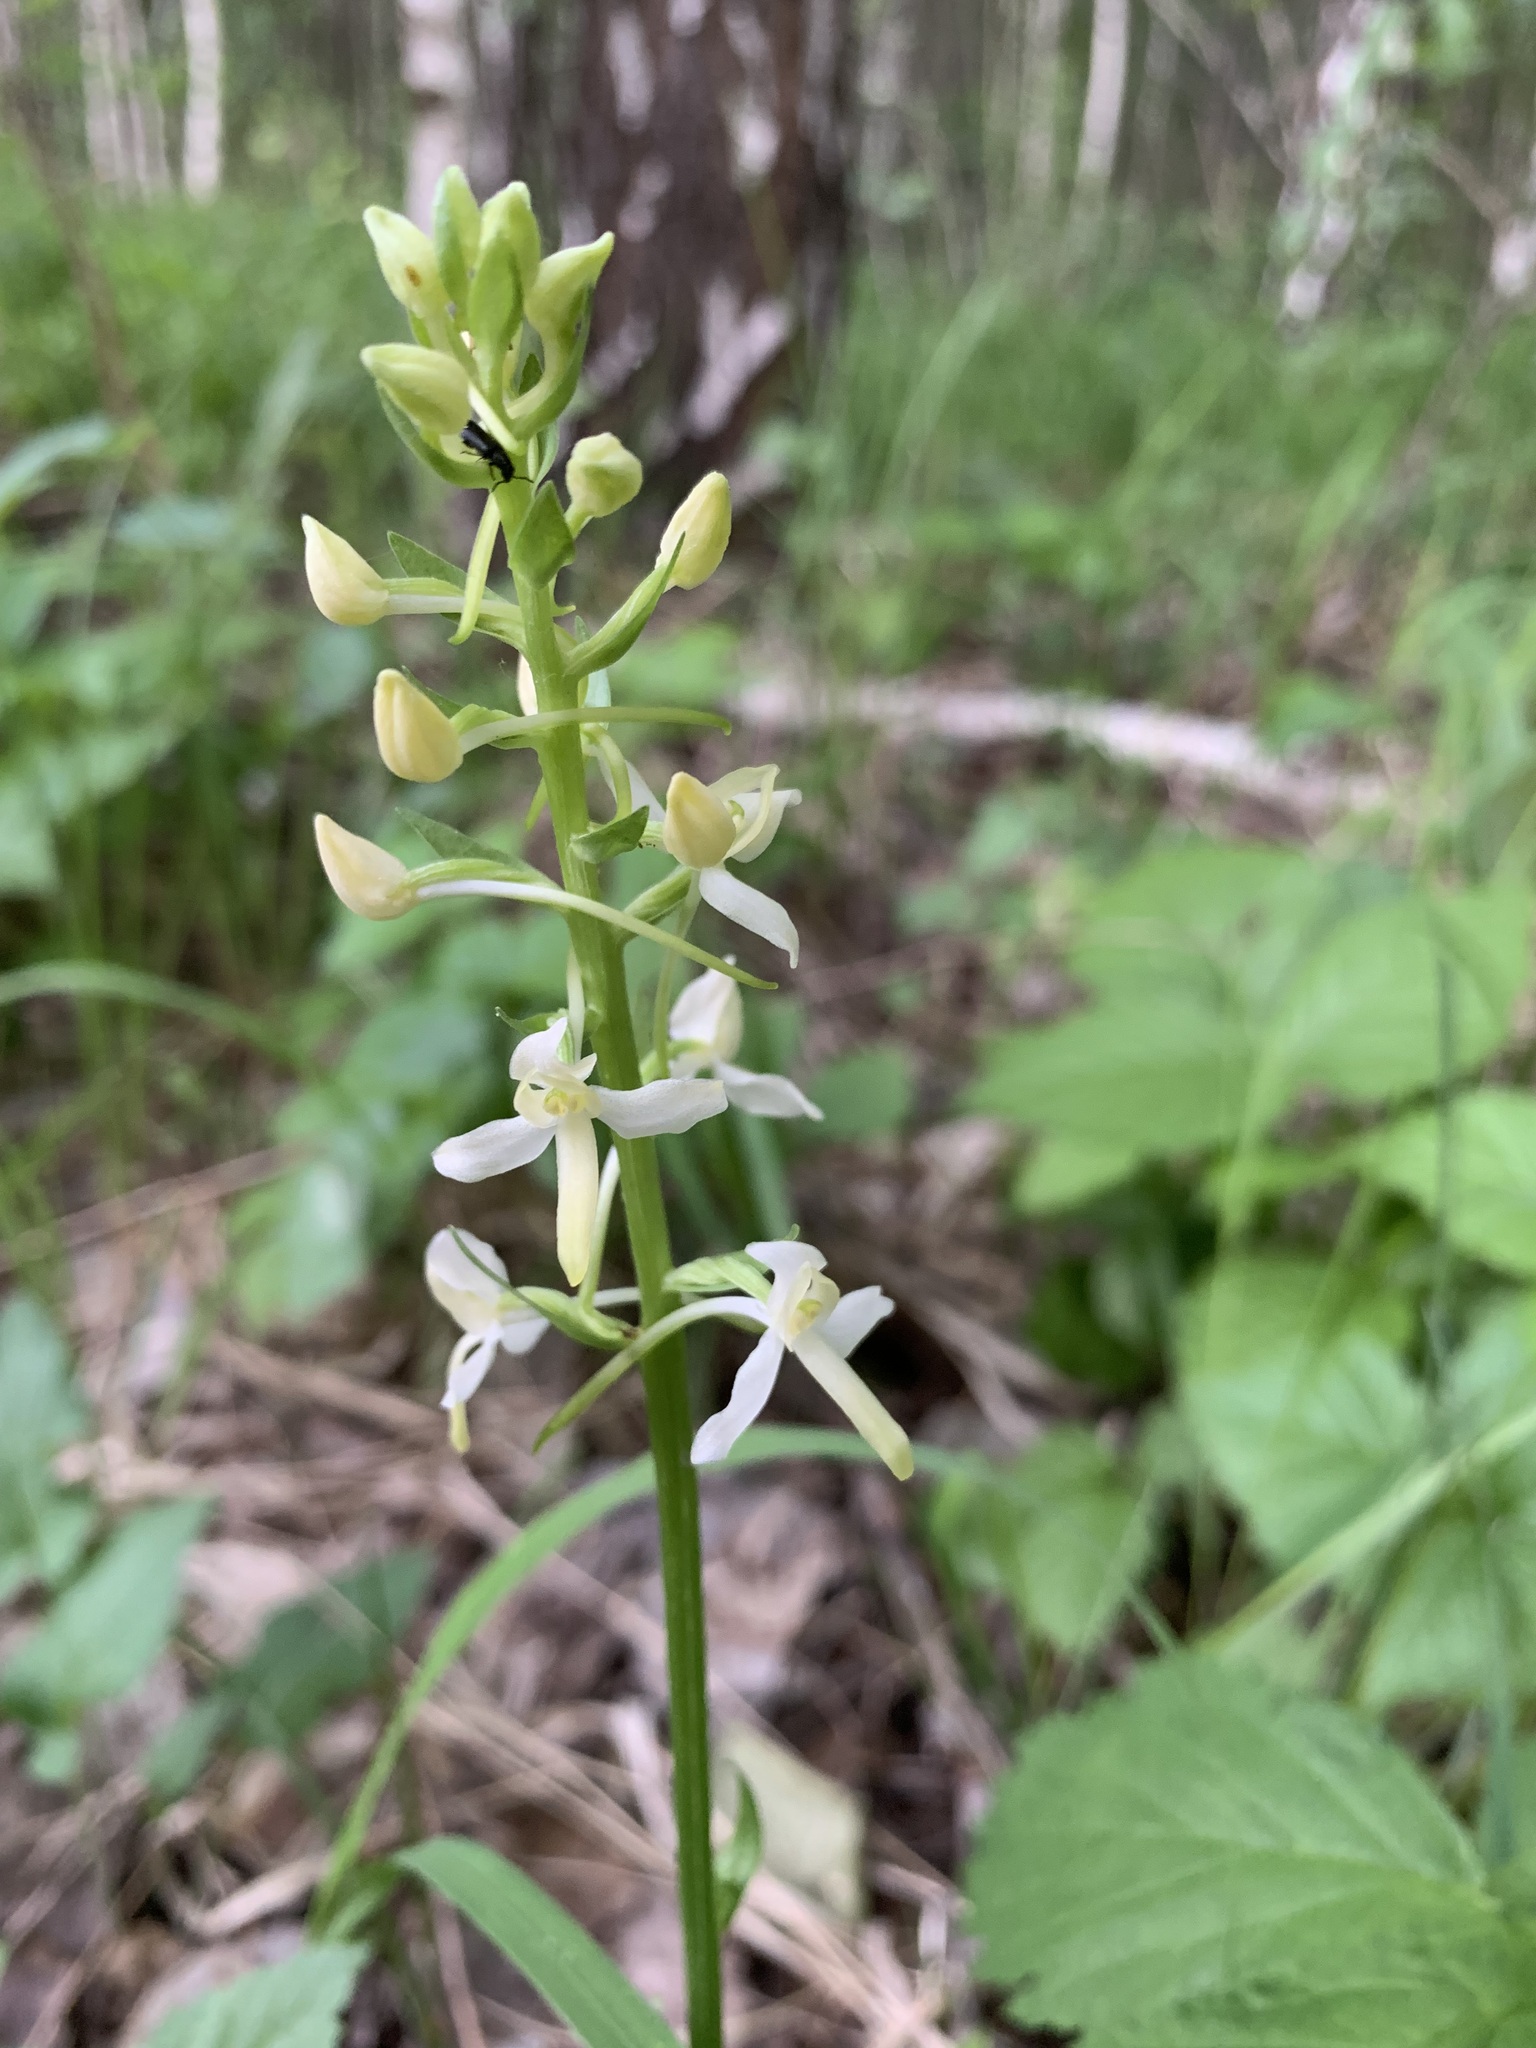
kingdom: Plantae
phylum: Tracheophyta
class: Liliopsida
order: Asparagales
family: Orchidaceae
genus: Platanthera
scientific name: Platanthera bifolia
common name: Lesser butterfly-orchid
